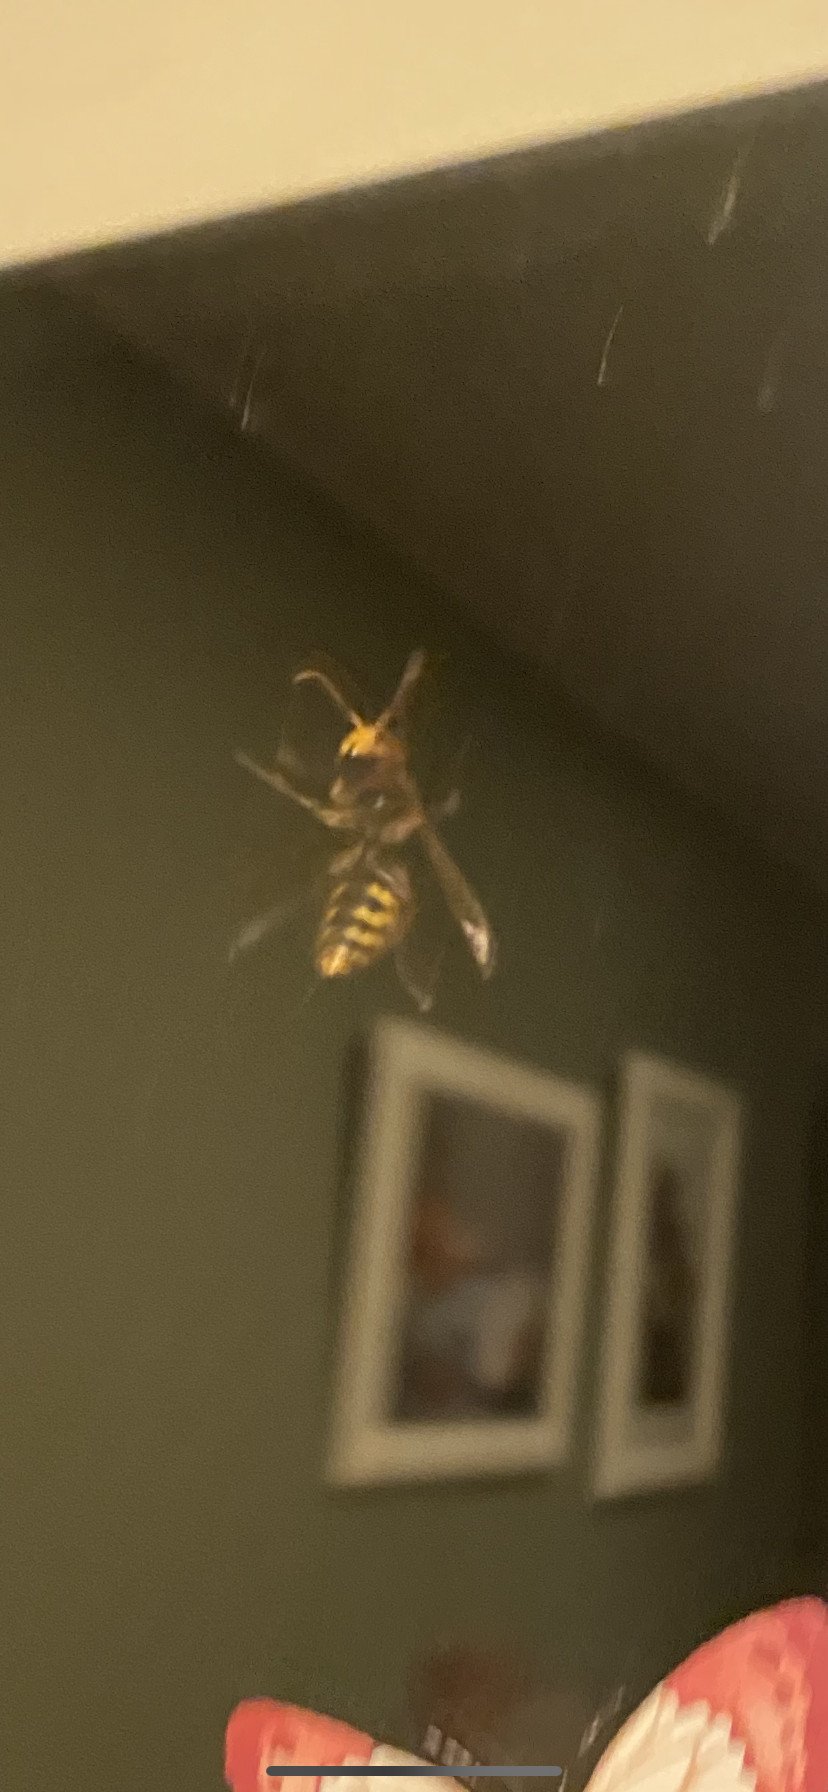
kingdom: Animalia
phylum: Arthropoda
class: Insecta
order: Hymenoptera
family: Vespidae
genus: Vespa
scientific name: Vespa crabro
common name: Hornet
